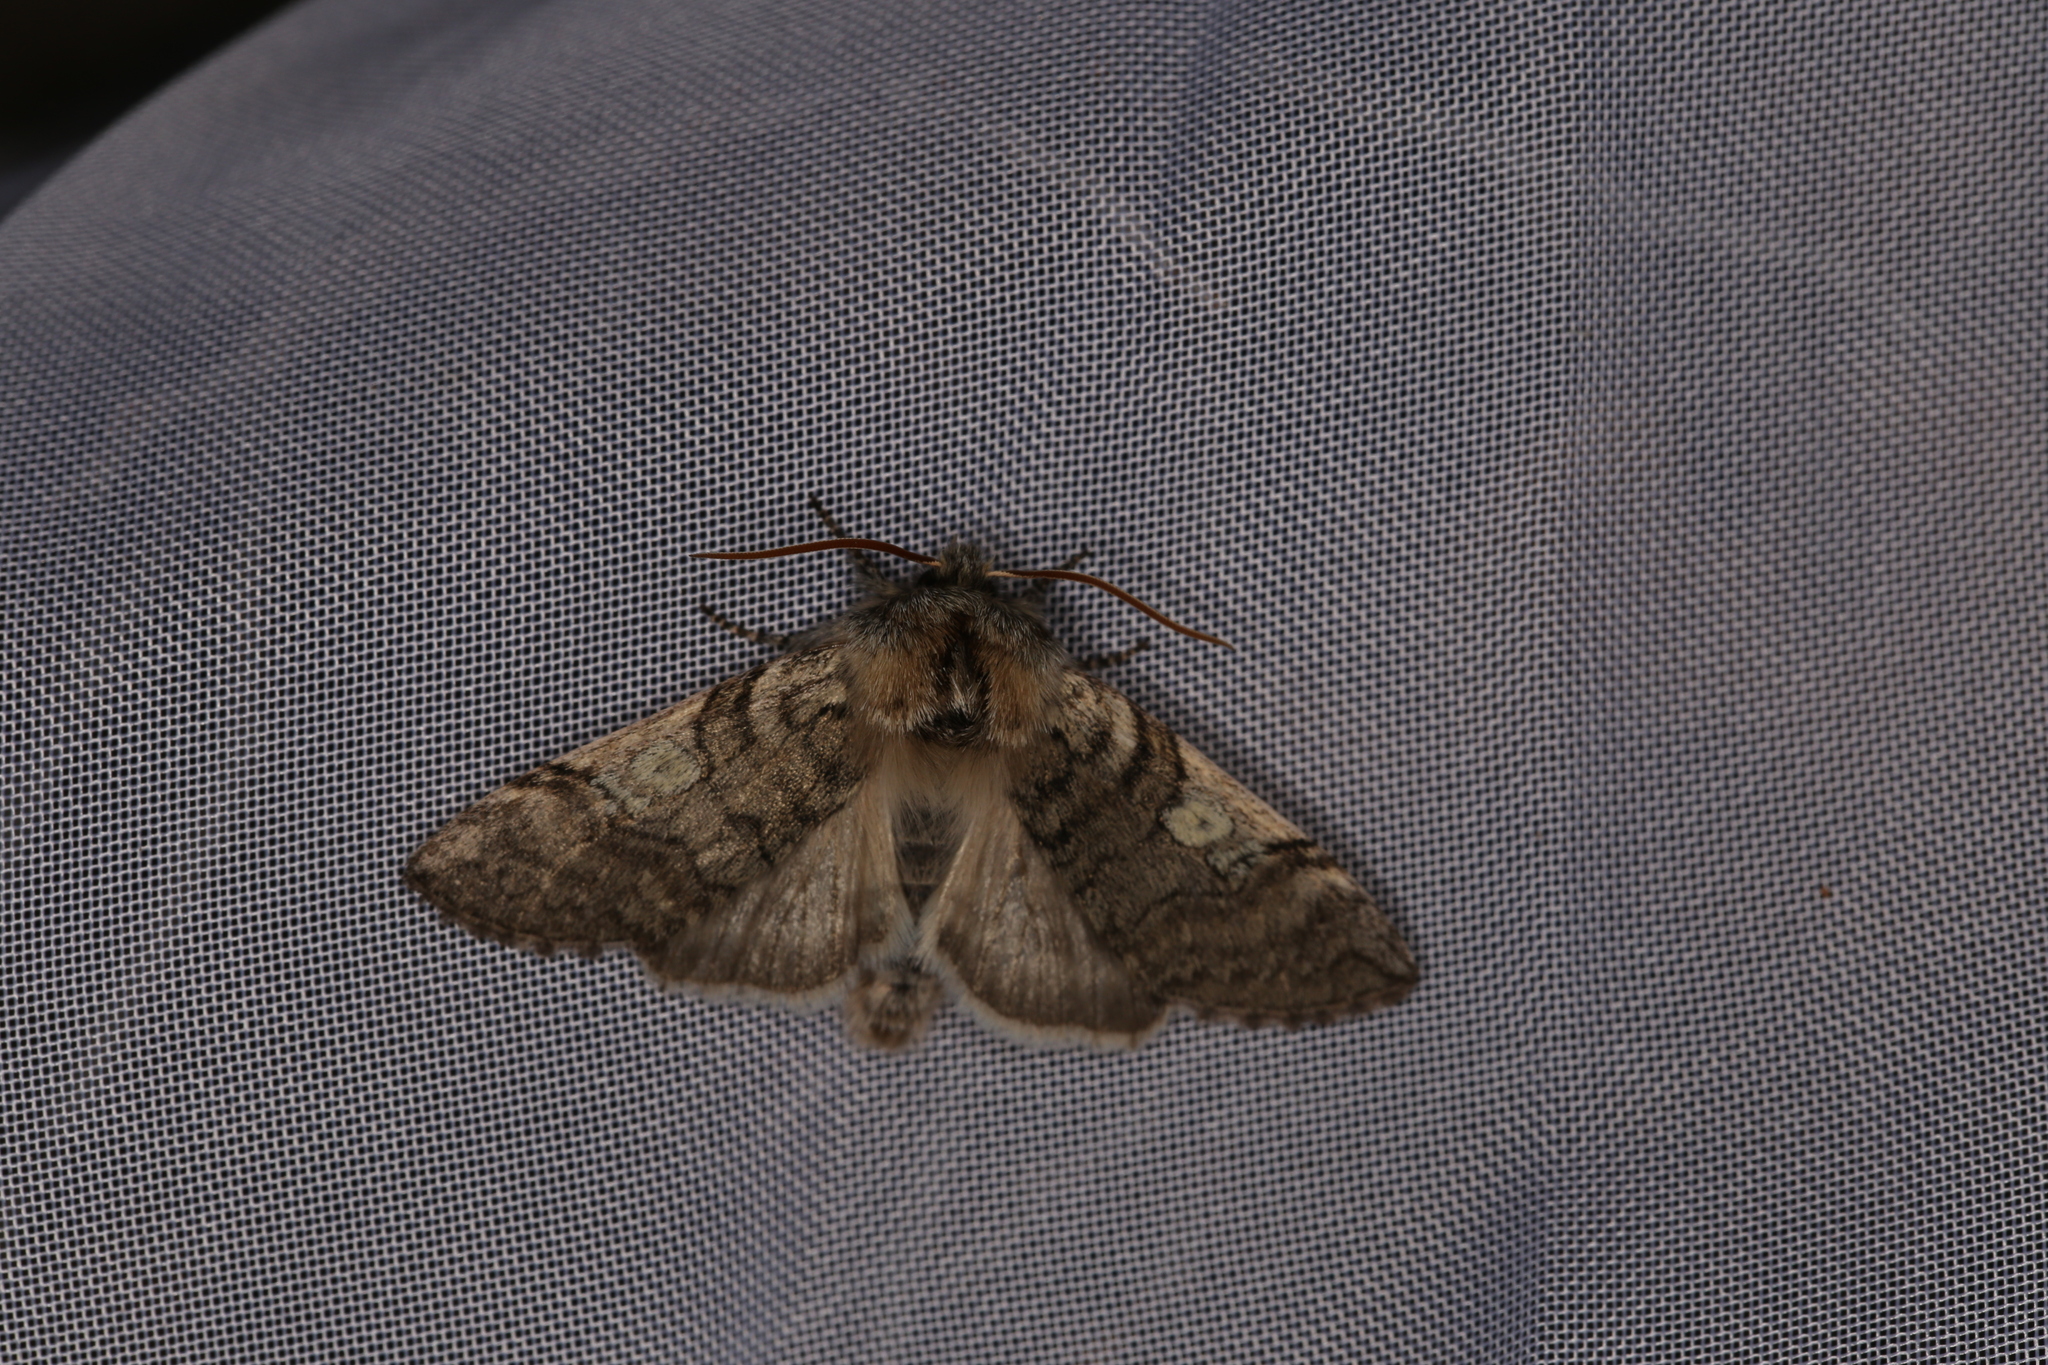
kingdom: Animalia
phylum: Arthropoda
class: Insecta
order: Lepidoptera
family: Drepanidae
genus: Achlya
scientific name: Achlya flavicornis
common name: Yellow horned
